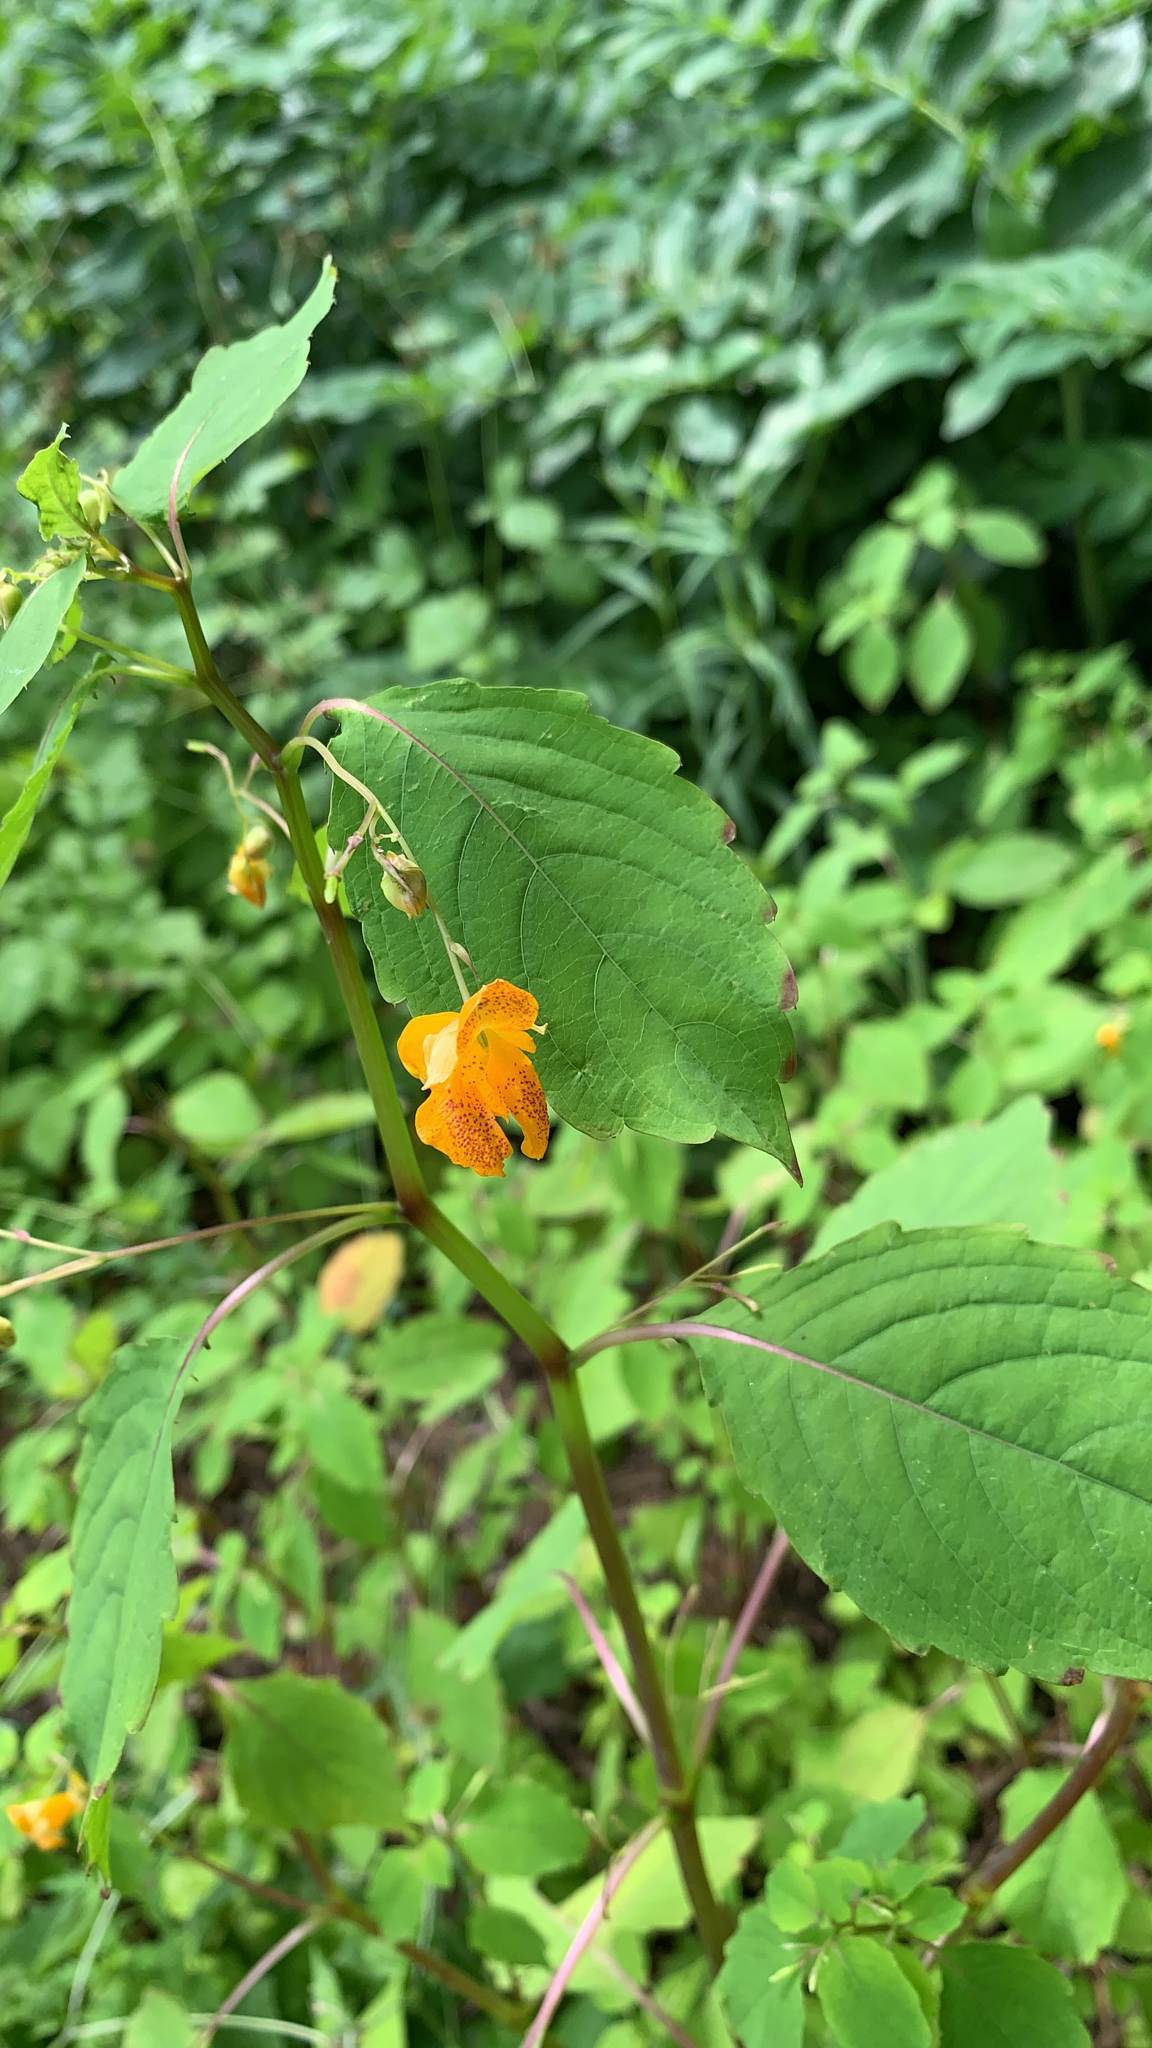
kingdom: Plantae
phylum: Tracheophyta
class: Magnoliopsida
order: Ericales
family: Balsaminaceae
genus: Impatiens
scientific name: Impatiens capensis
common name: Orange balsam
